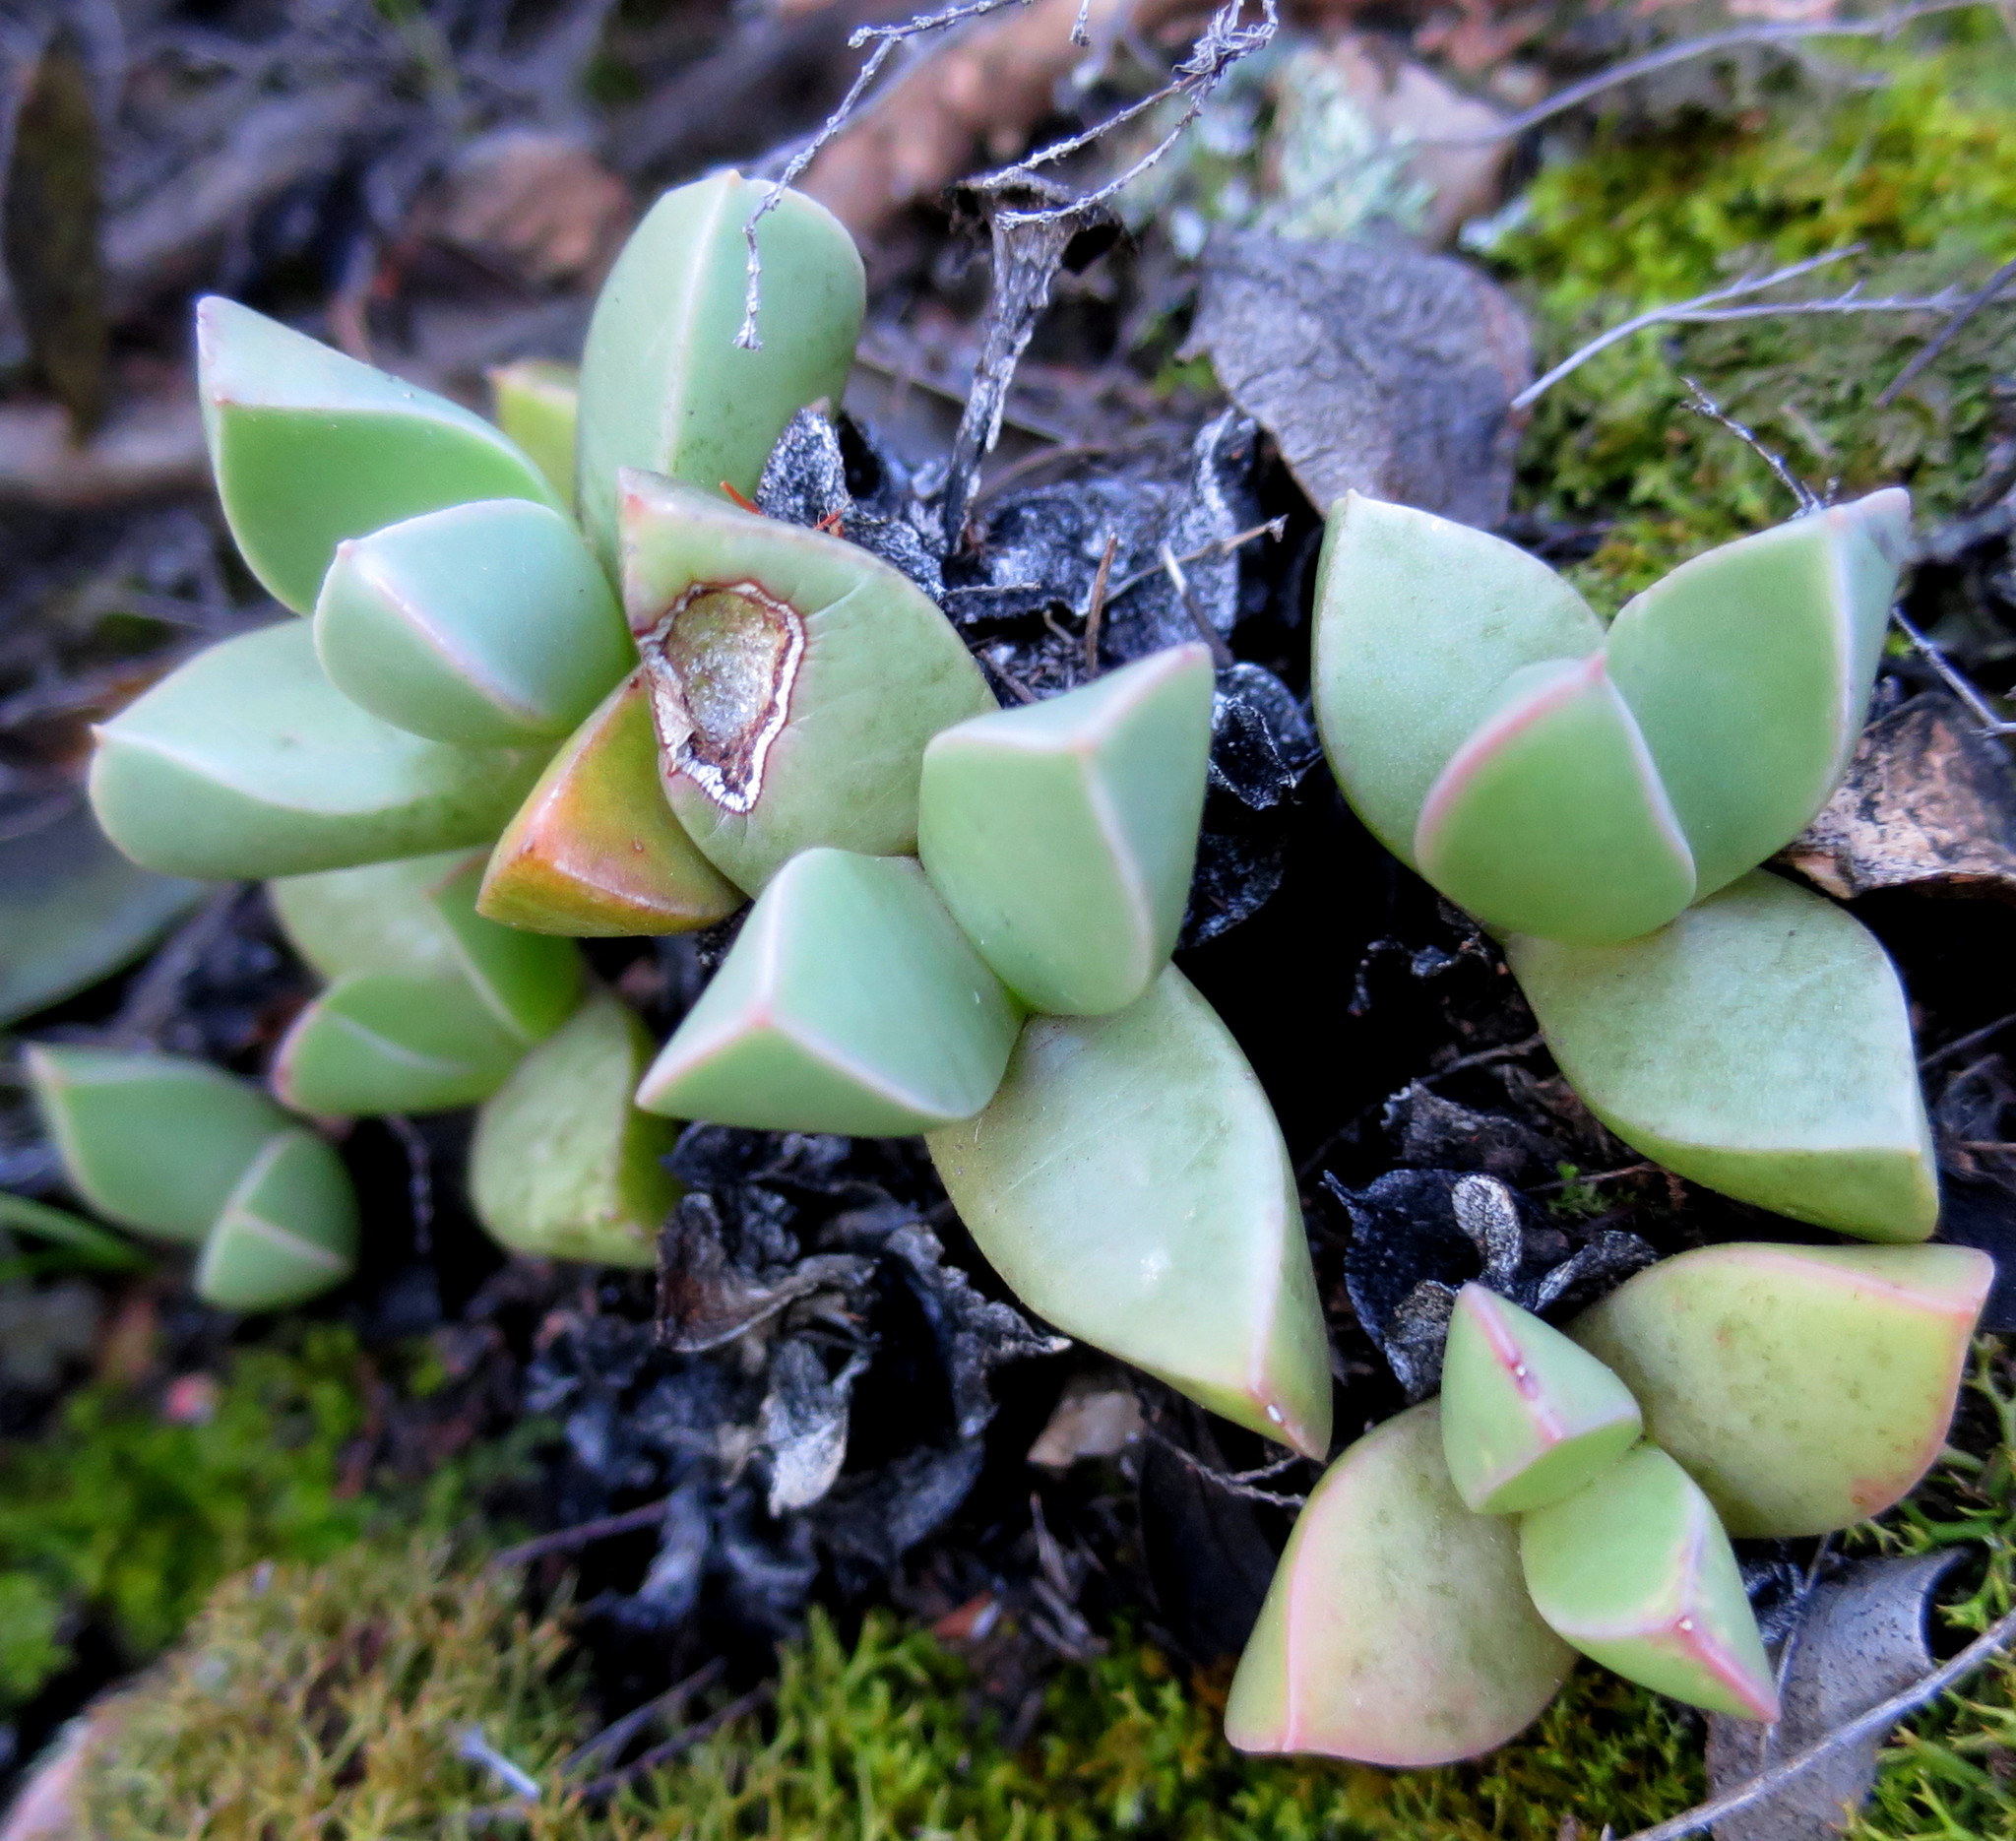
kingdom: Plantae
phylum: Tracheophyta
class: Magnoliopsida
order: Caryophyllales
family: Aizoaceae
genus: Machairophyllum
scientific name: Machairophyllum brevifolium
